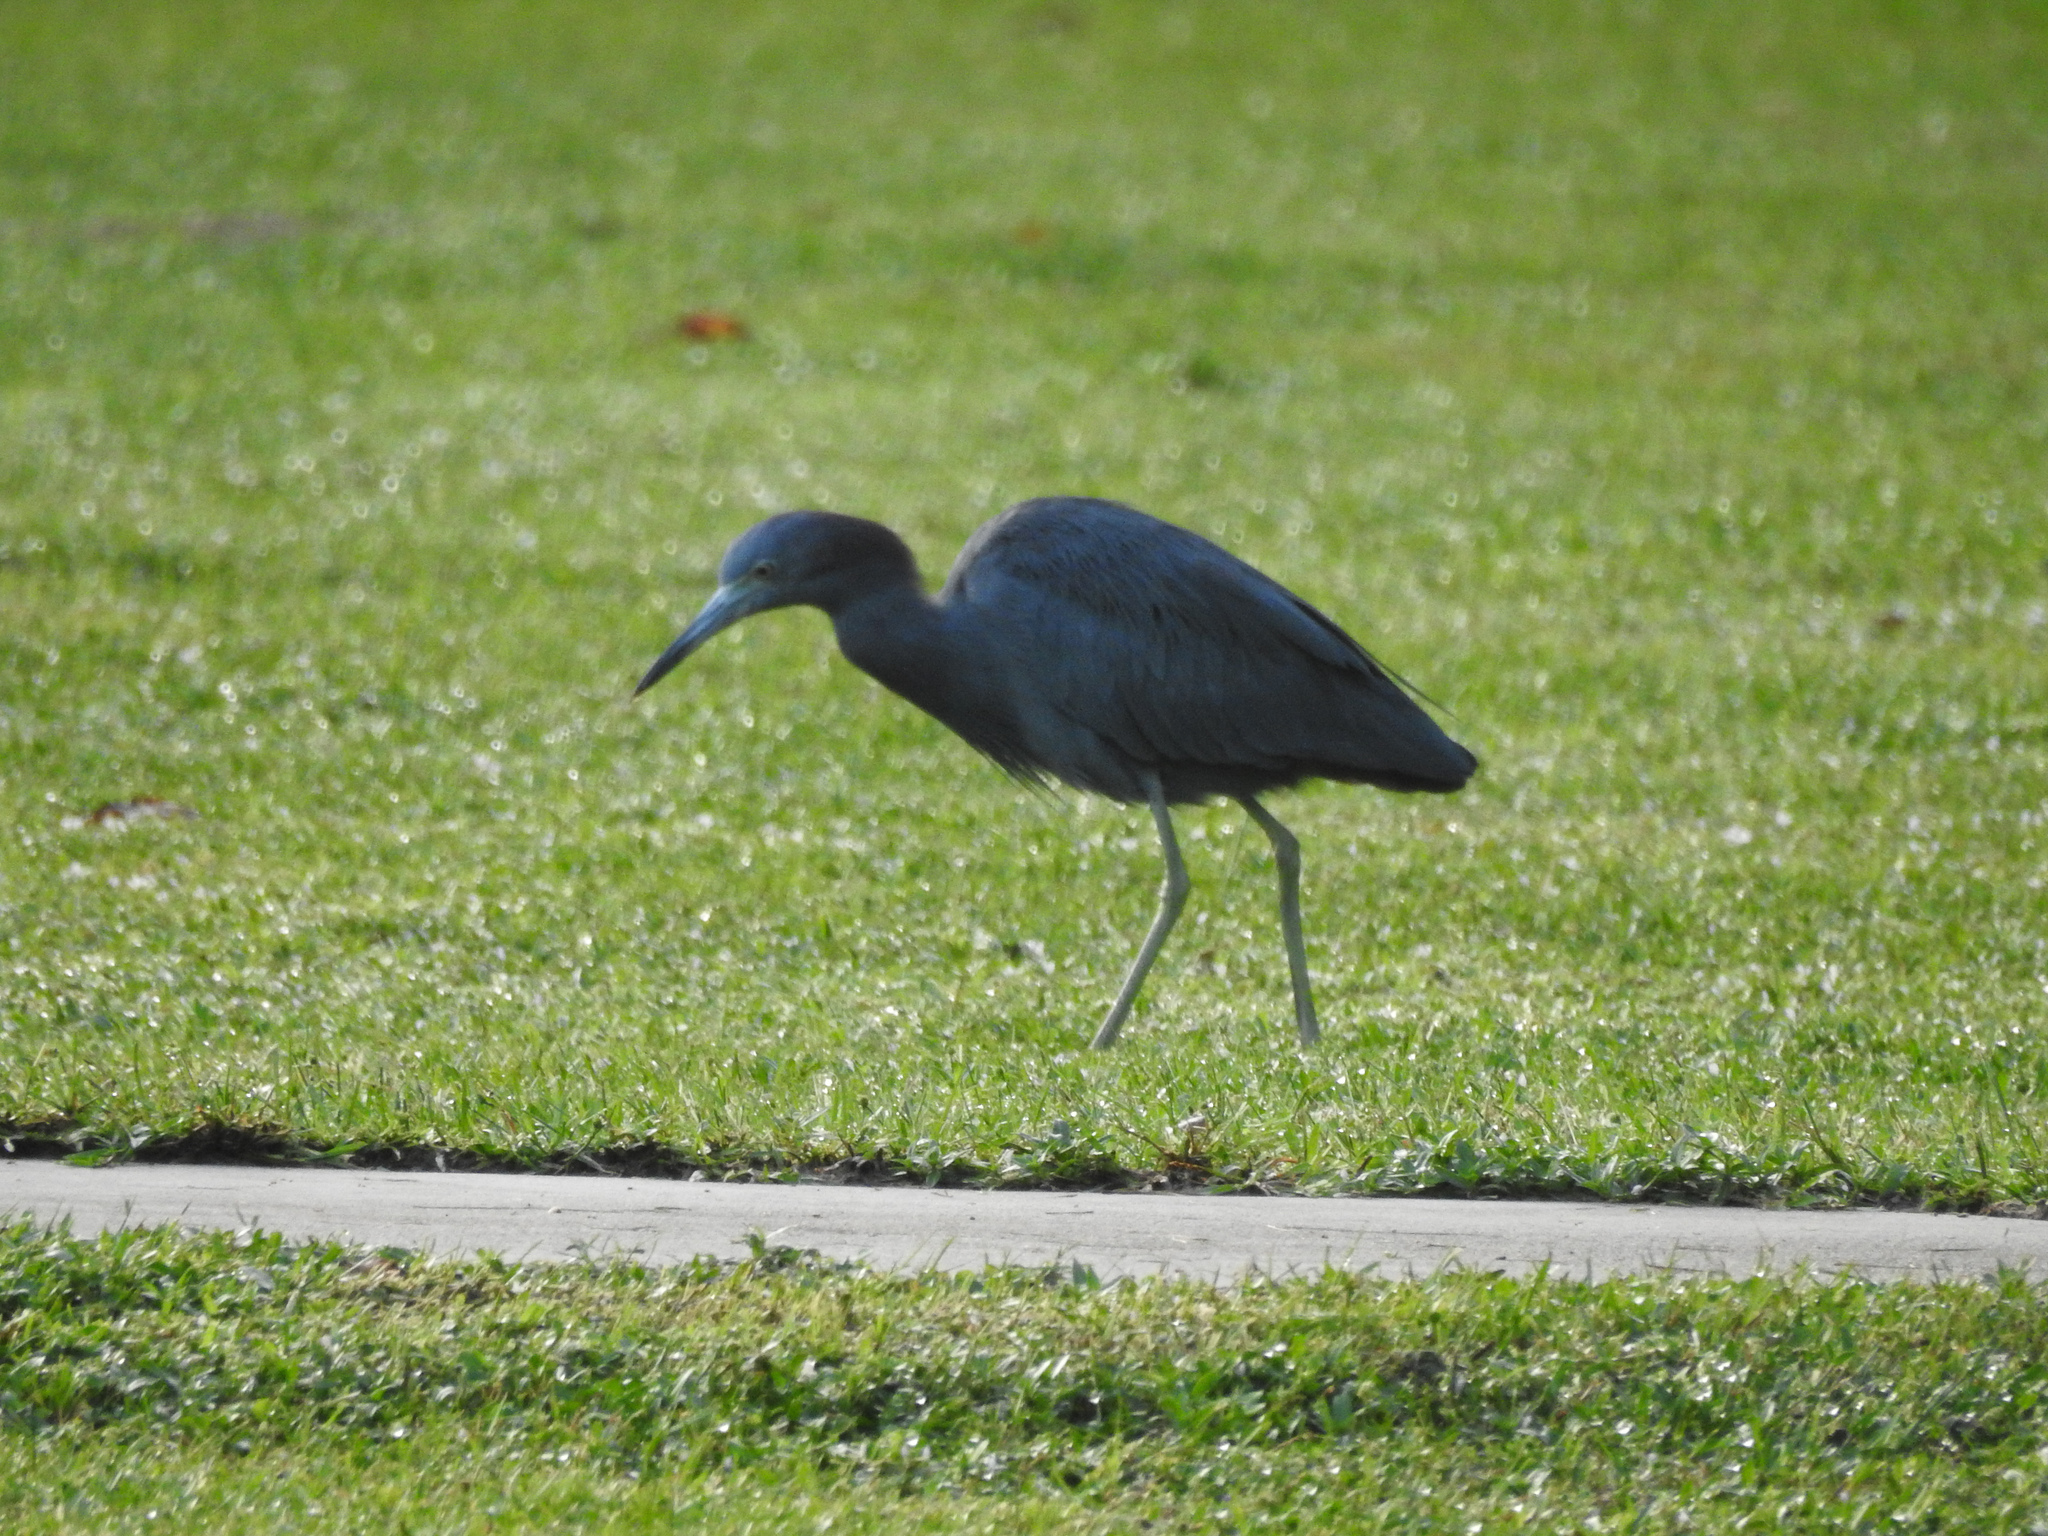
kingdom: Animalia
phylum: Chordata
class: Aves
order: Pelecaniformes
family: Ardeidae
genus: Egretta
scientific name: Egretta caerulea
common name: Little blue heron
